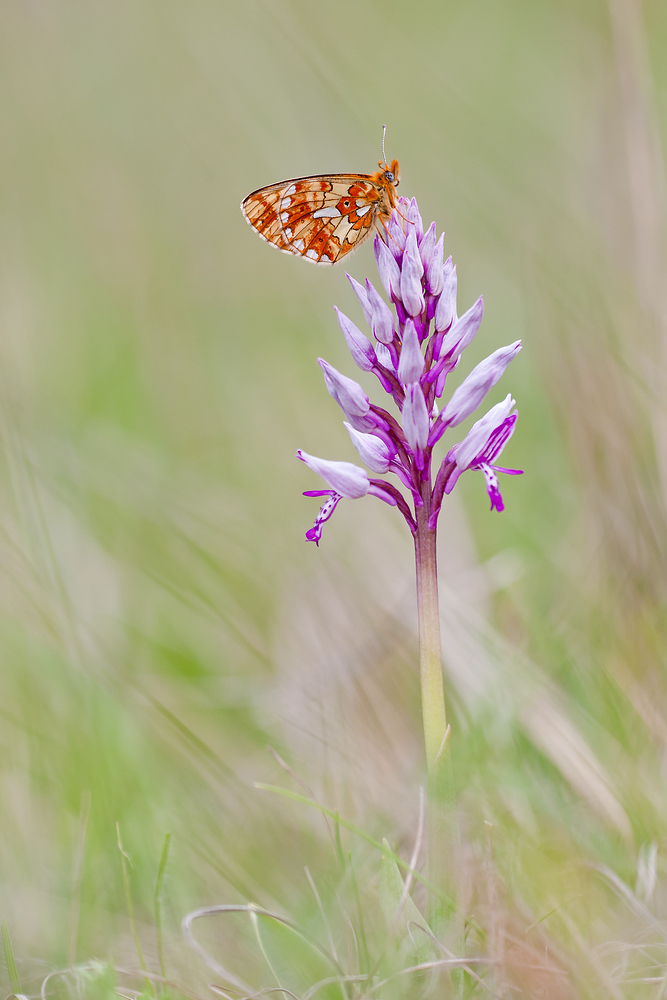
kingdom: Plantae
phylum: Tracheophyta
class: Liliopsida
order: Asparagales
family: Orchidaceae
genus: Orchis
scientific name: Orchis militaris
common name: Military orchid
